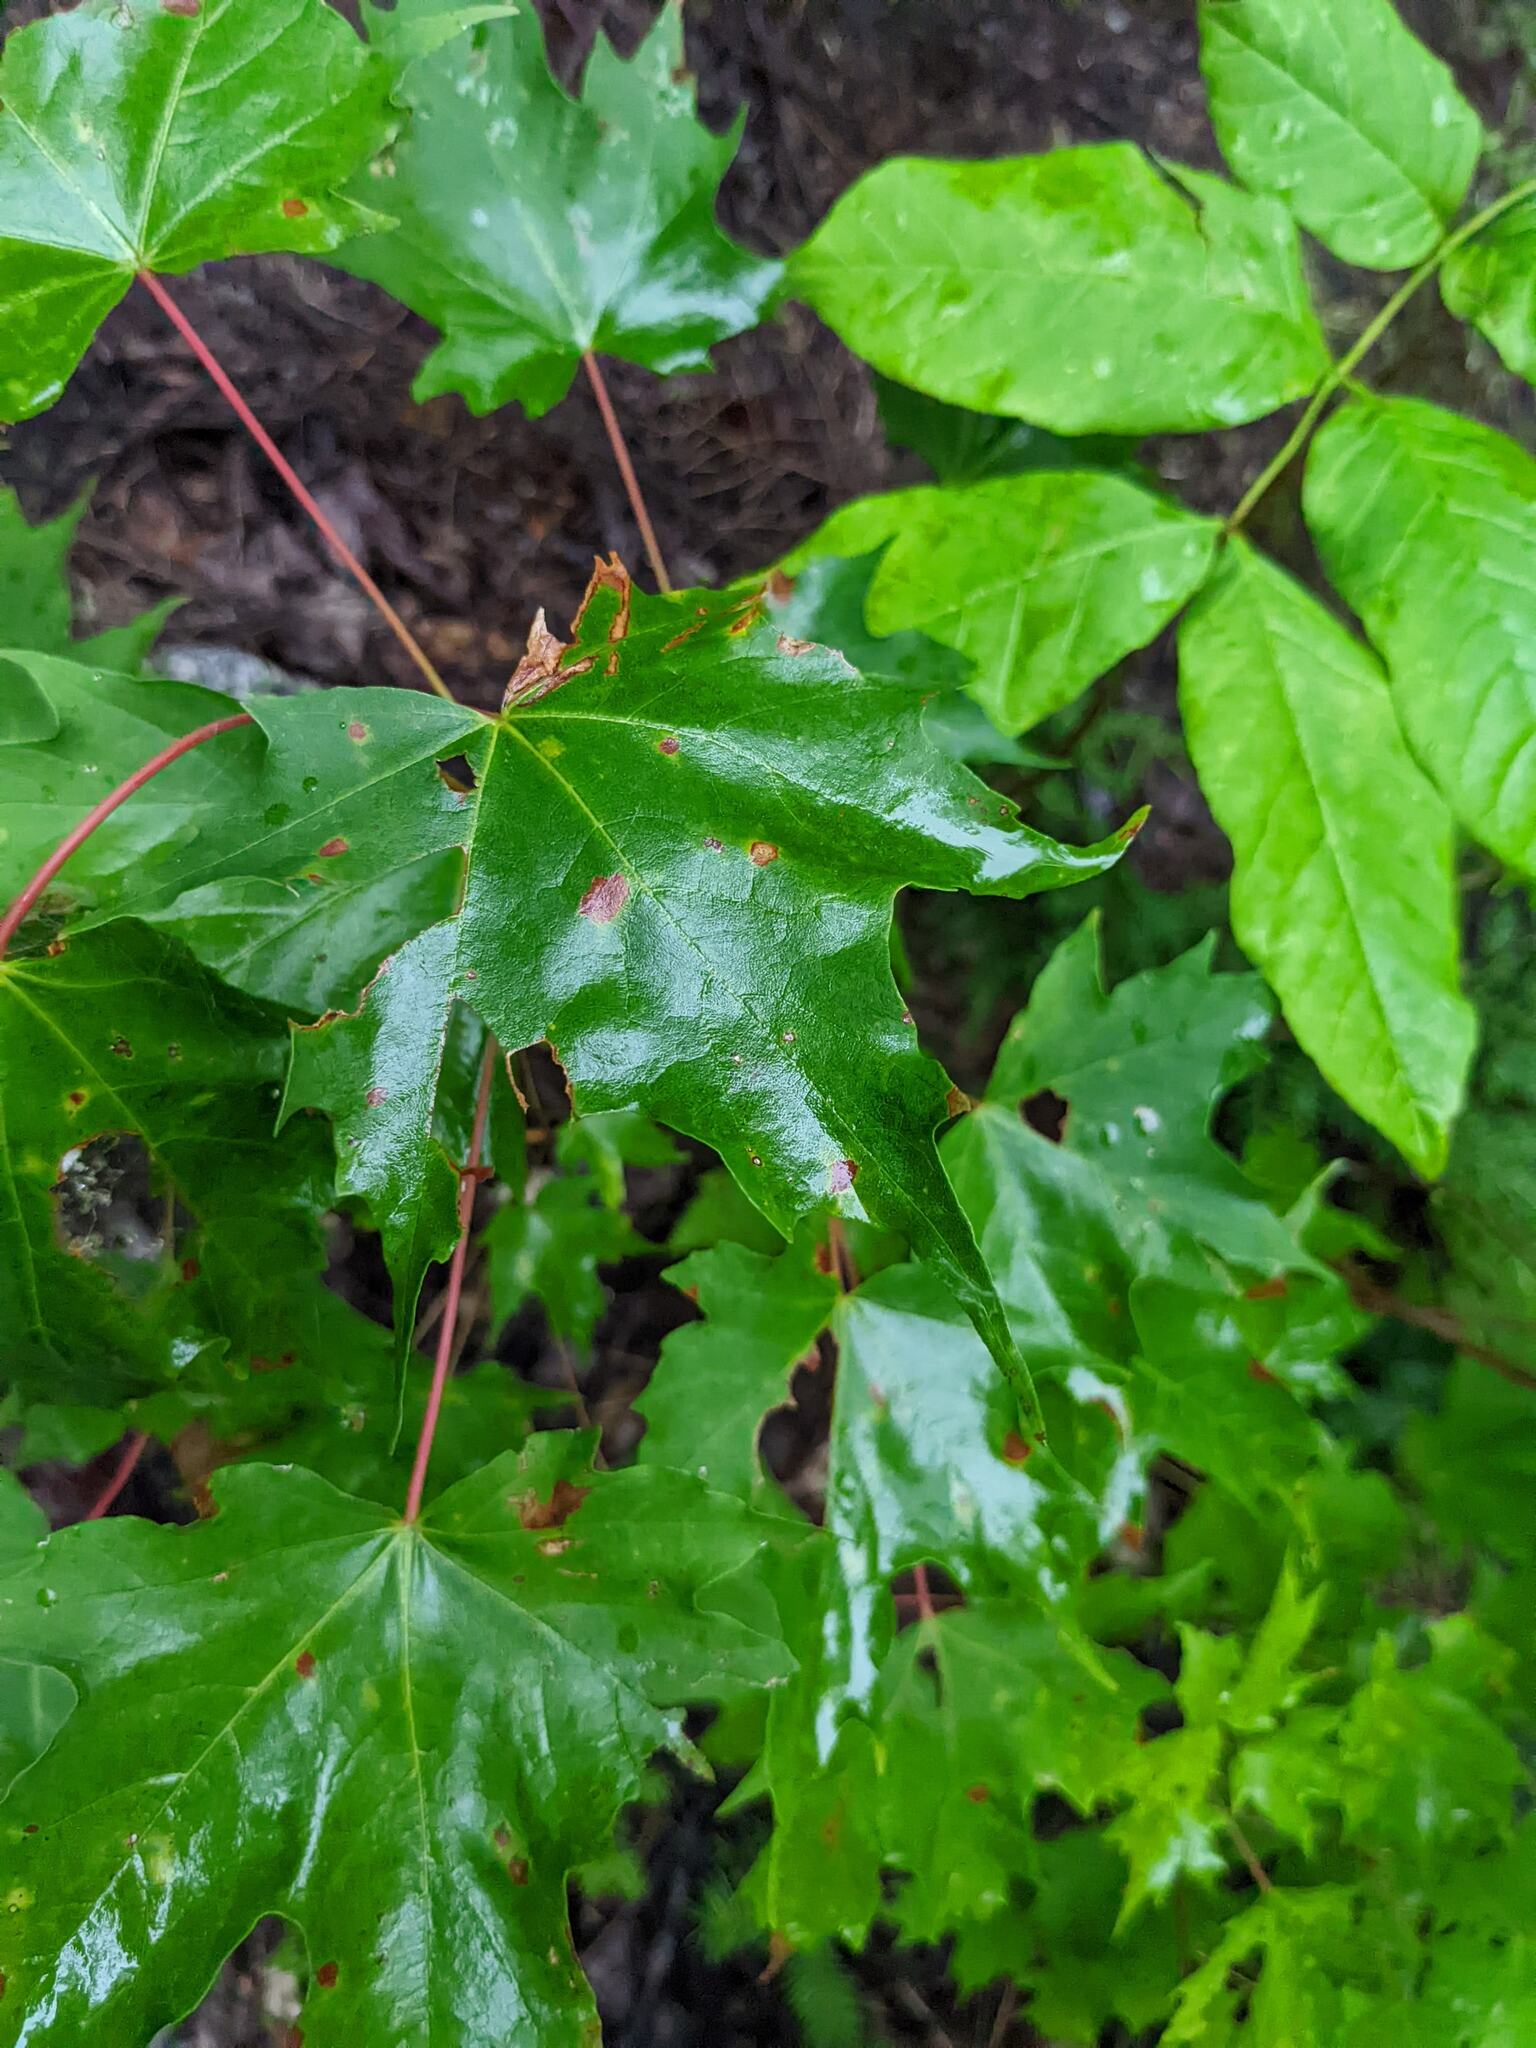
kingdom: Plantae
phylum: Tracheophyta
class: Magnoliopsida
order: Sapindales
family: Sapindaceae
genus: Acer
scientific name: Acer saccharum
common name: Sugar maple
